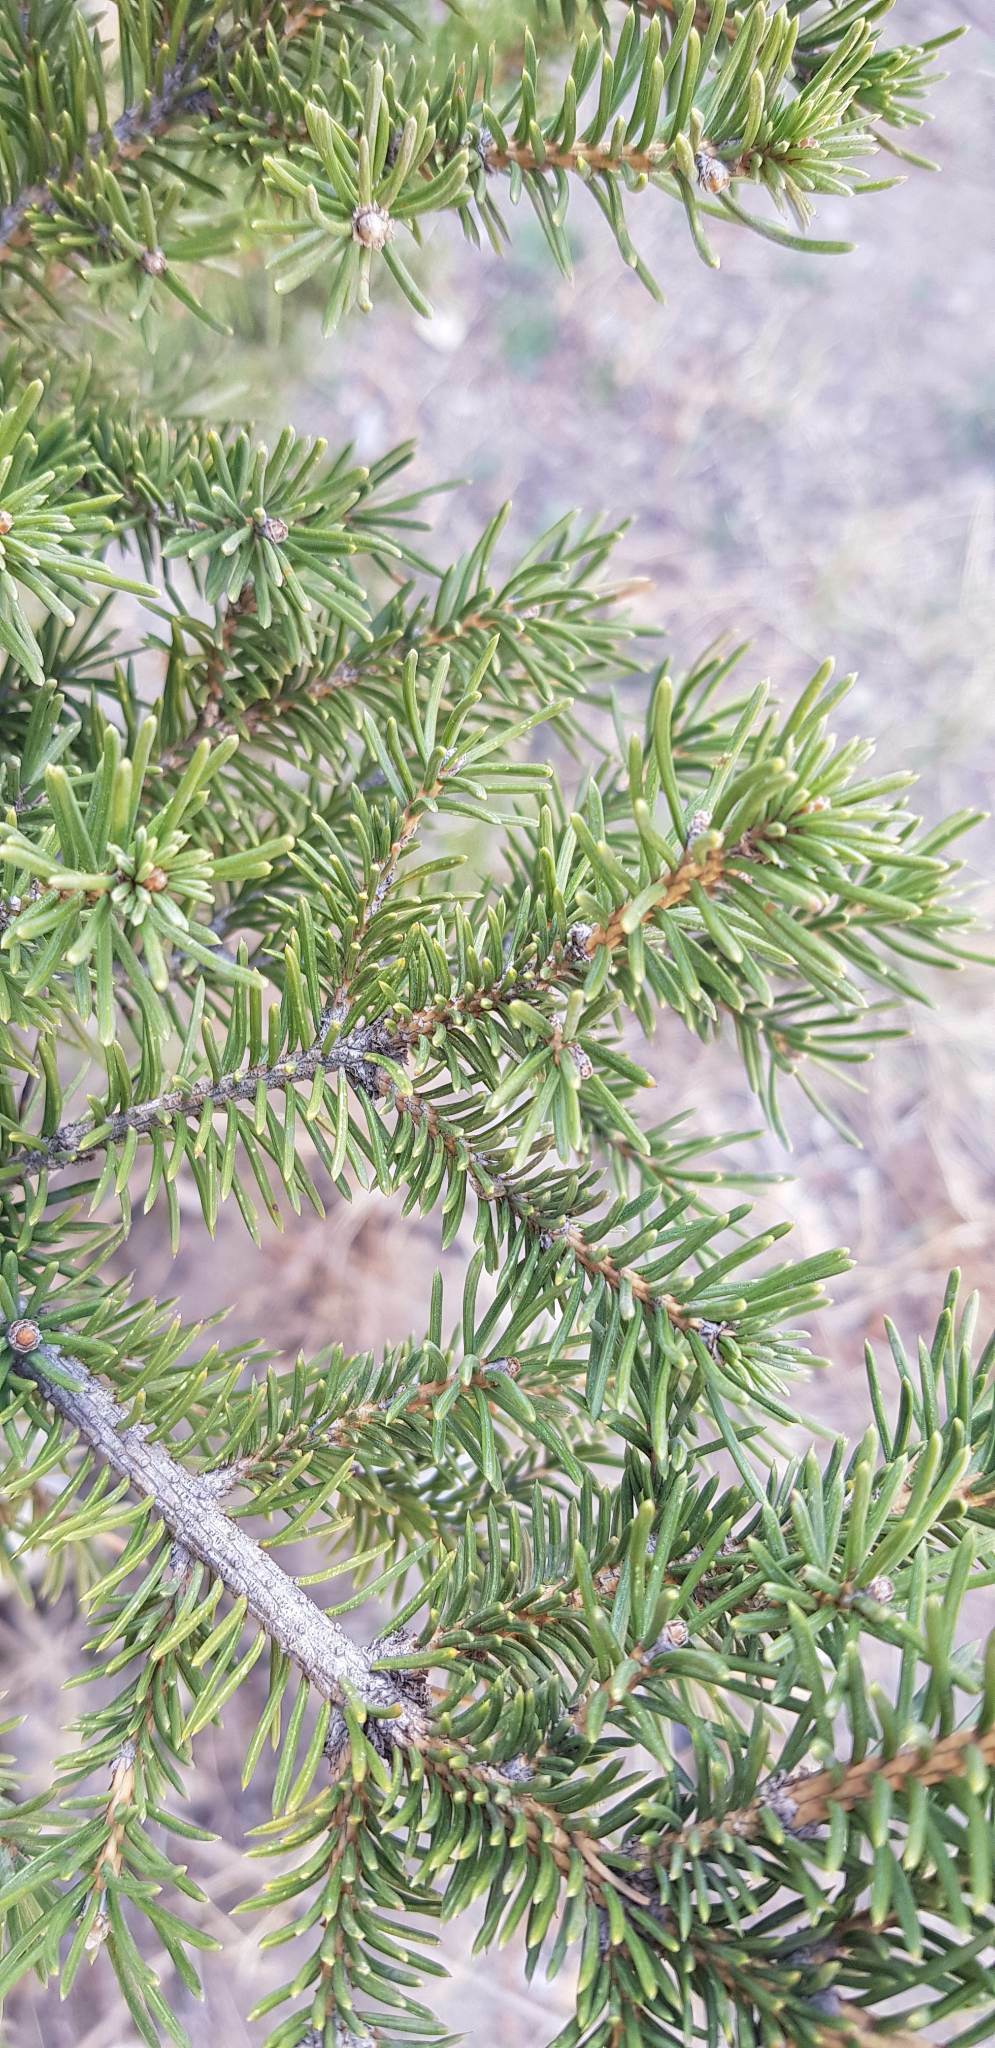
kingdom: Plantae
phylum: Tracheophyta
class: Pinopsida
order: Pinales
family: Pinaceae
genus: Picea
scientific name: Picea obovata
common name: Siberian spruce
